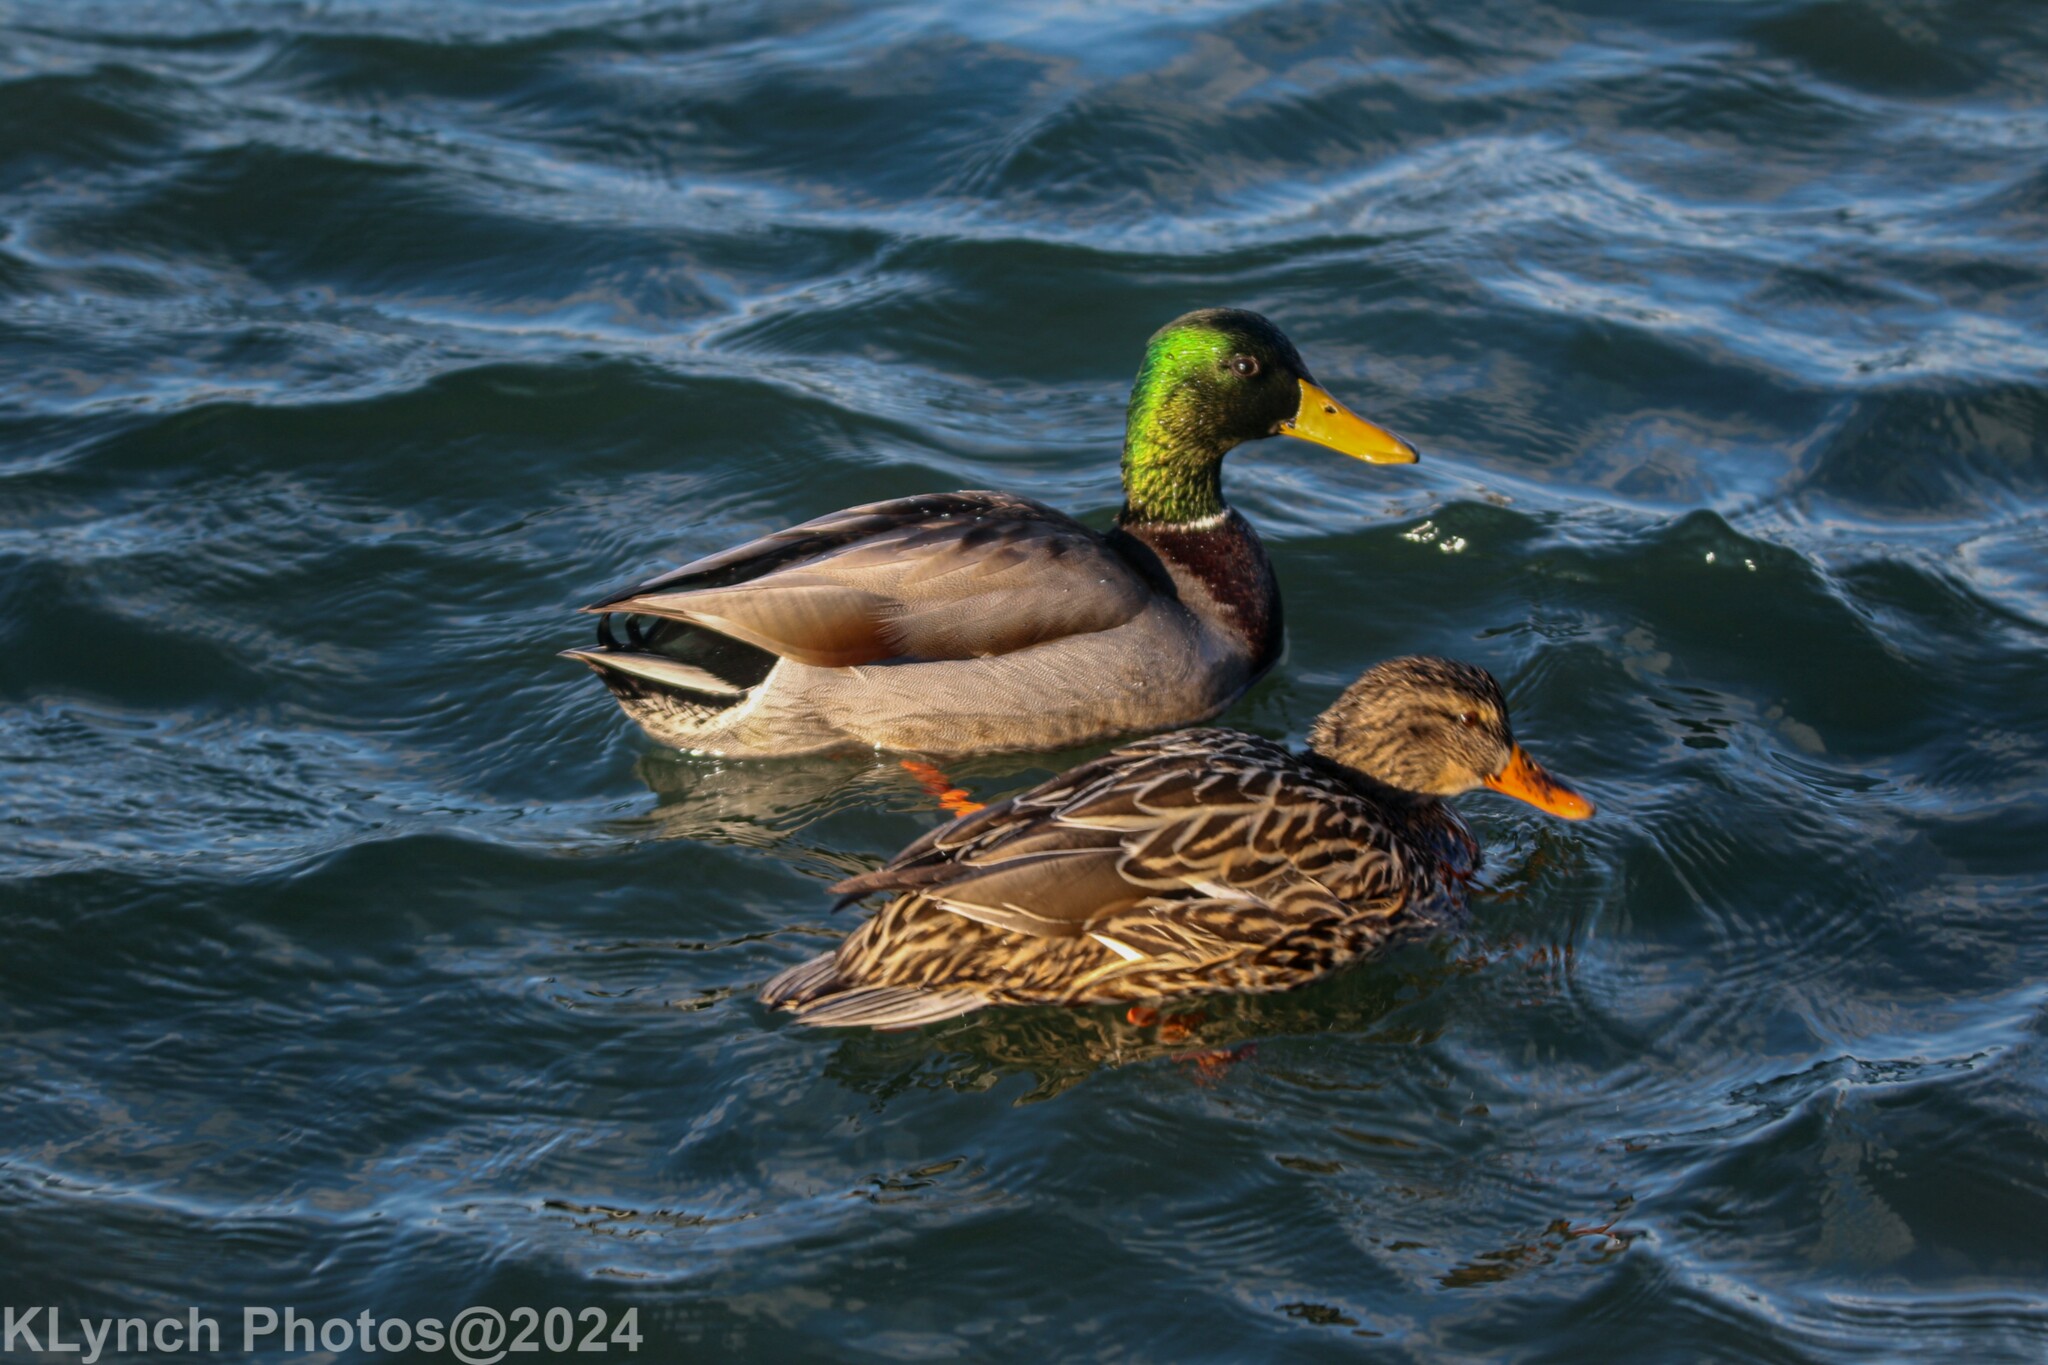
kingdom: Animalia
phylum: Chordata
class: Aves
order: Anseriformes
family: Anatidae
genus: Anas
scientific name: Anas platyrhynchos
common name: Mallard
